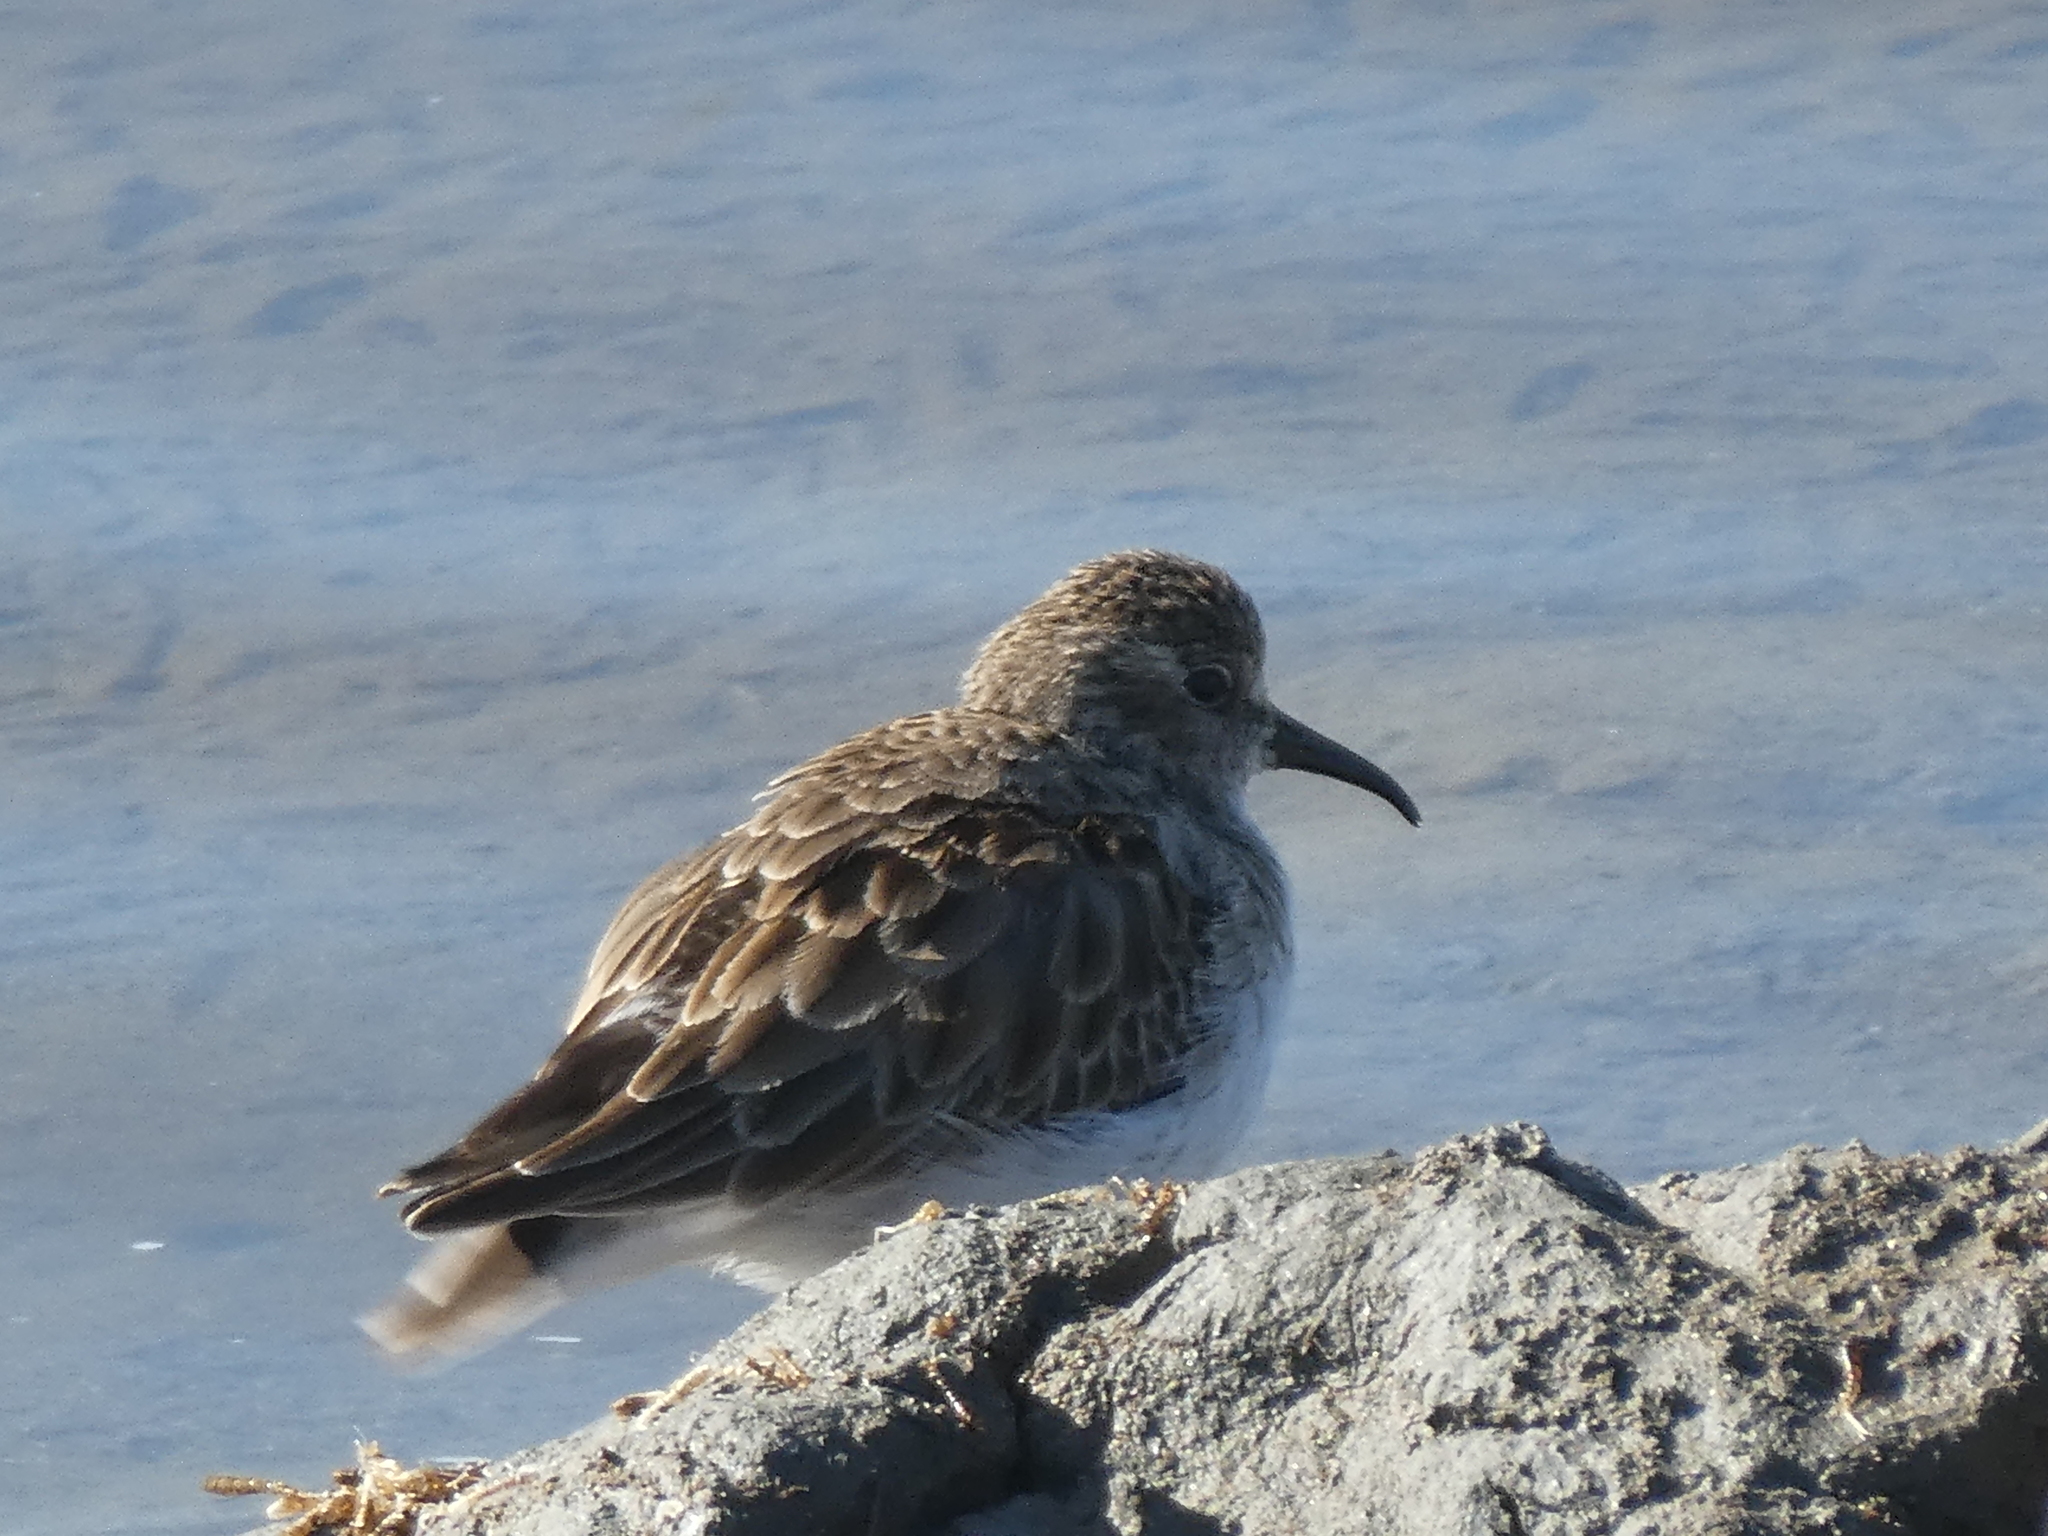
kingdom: Animalia
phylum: Chordata
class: Aves
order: Charadriiformes
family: Scolopacidae
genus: Calidris
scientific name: Calidris minutilla
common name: Least sandpiper
